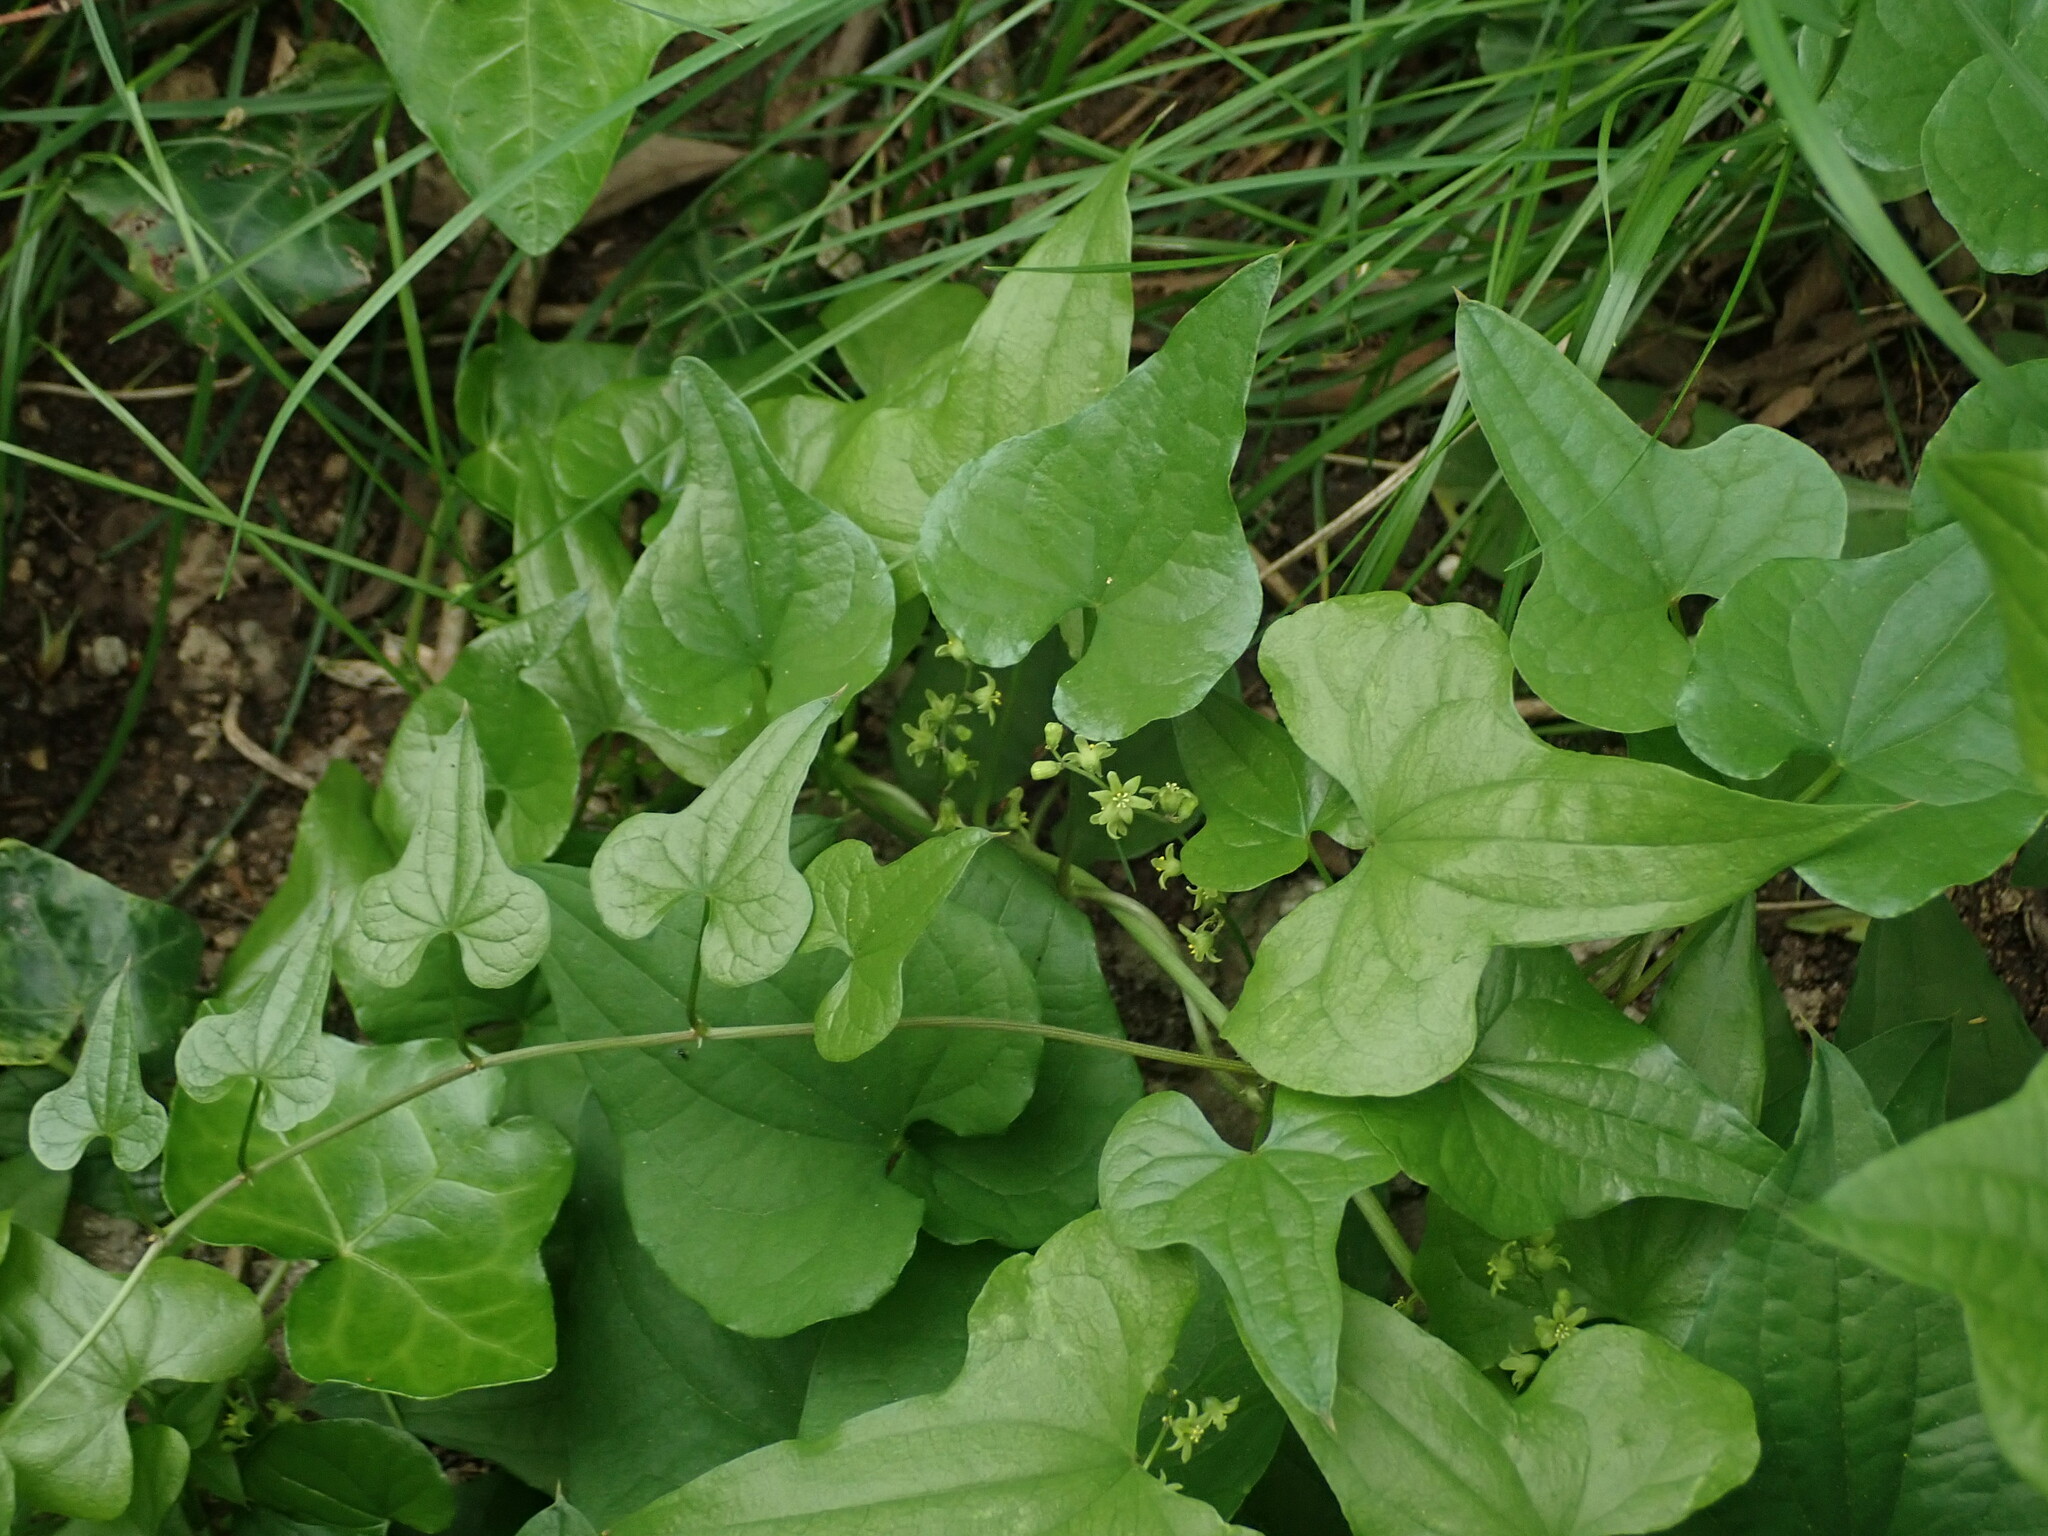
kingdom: Plantae
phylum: Tracheophyta
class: Liliopsida
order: Dioscoreales
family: Dioscoreaceae
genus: Dioscorea
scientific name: Dioscorea communis
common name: Black-bindweed
